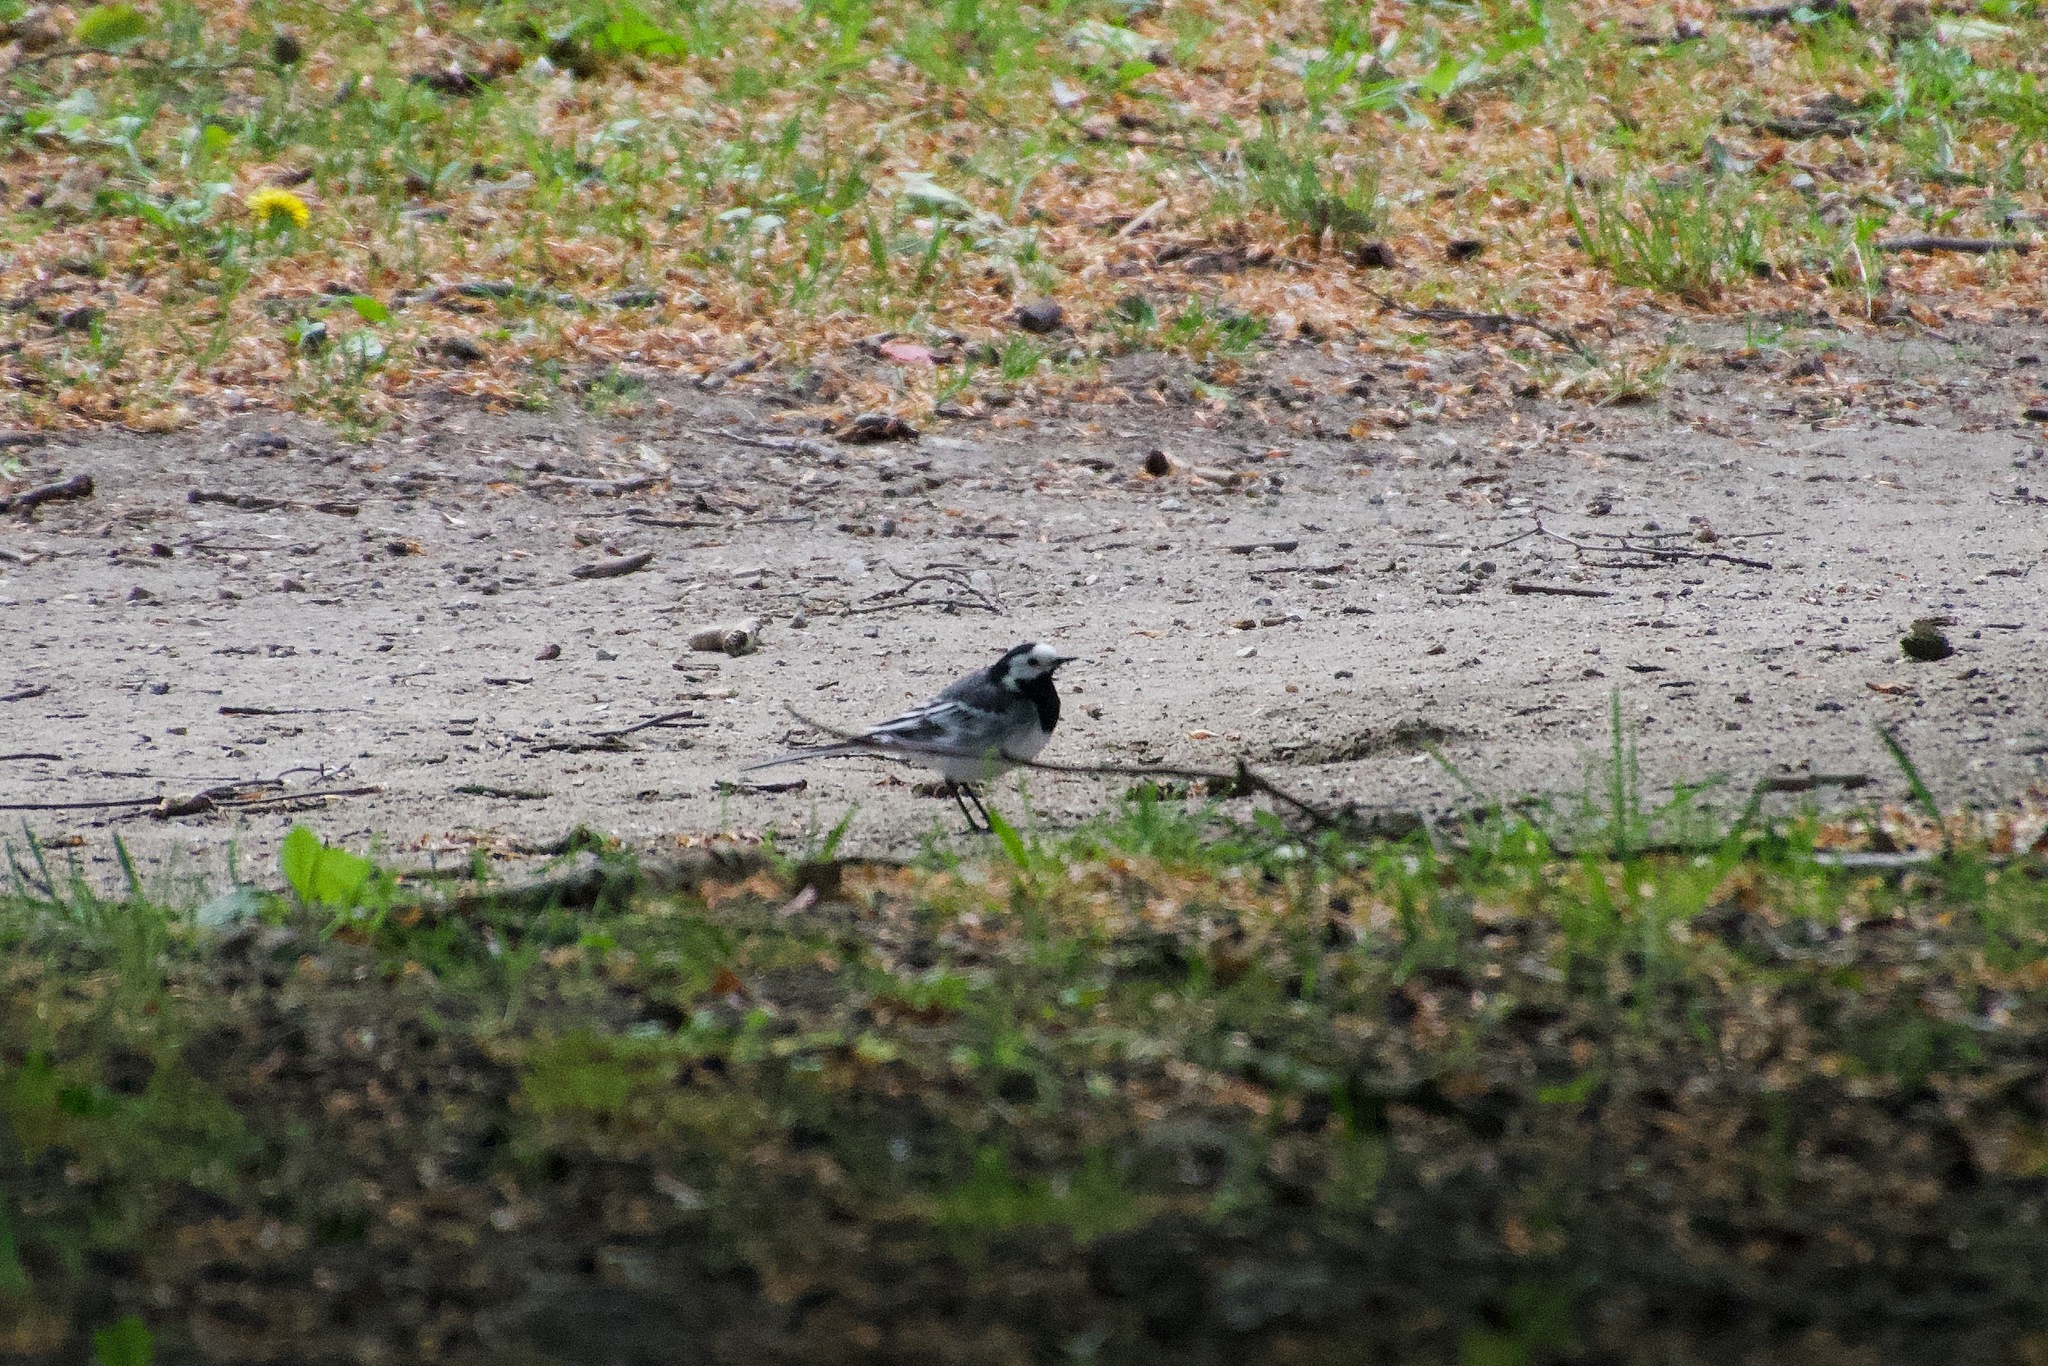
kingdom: Animalia
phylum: Chordata
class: Aves
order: Passeriformes
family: Motacillidae
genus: Motacilla
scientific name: Motacilla alba
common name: White wagtail
